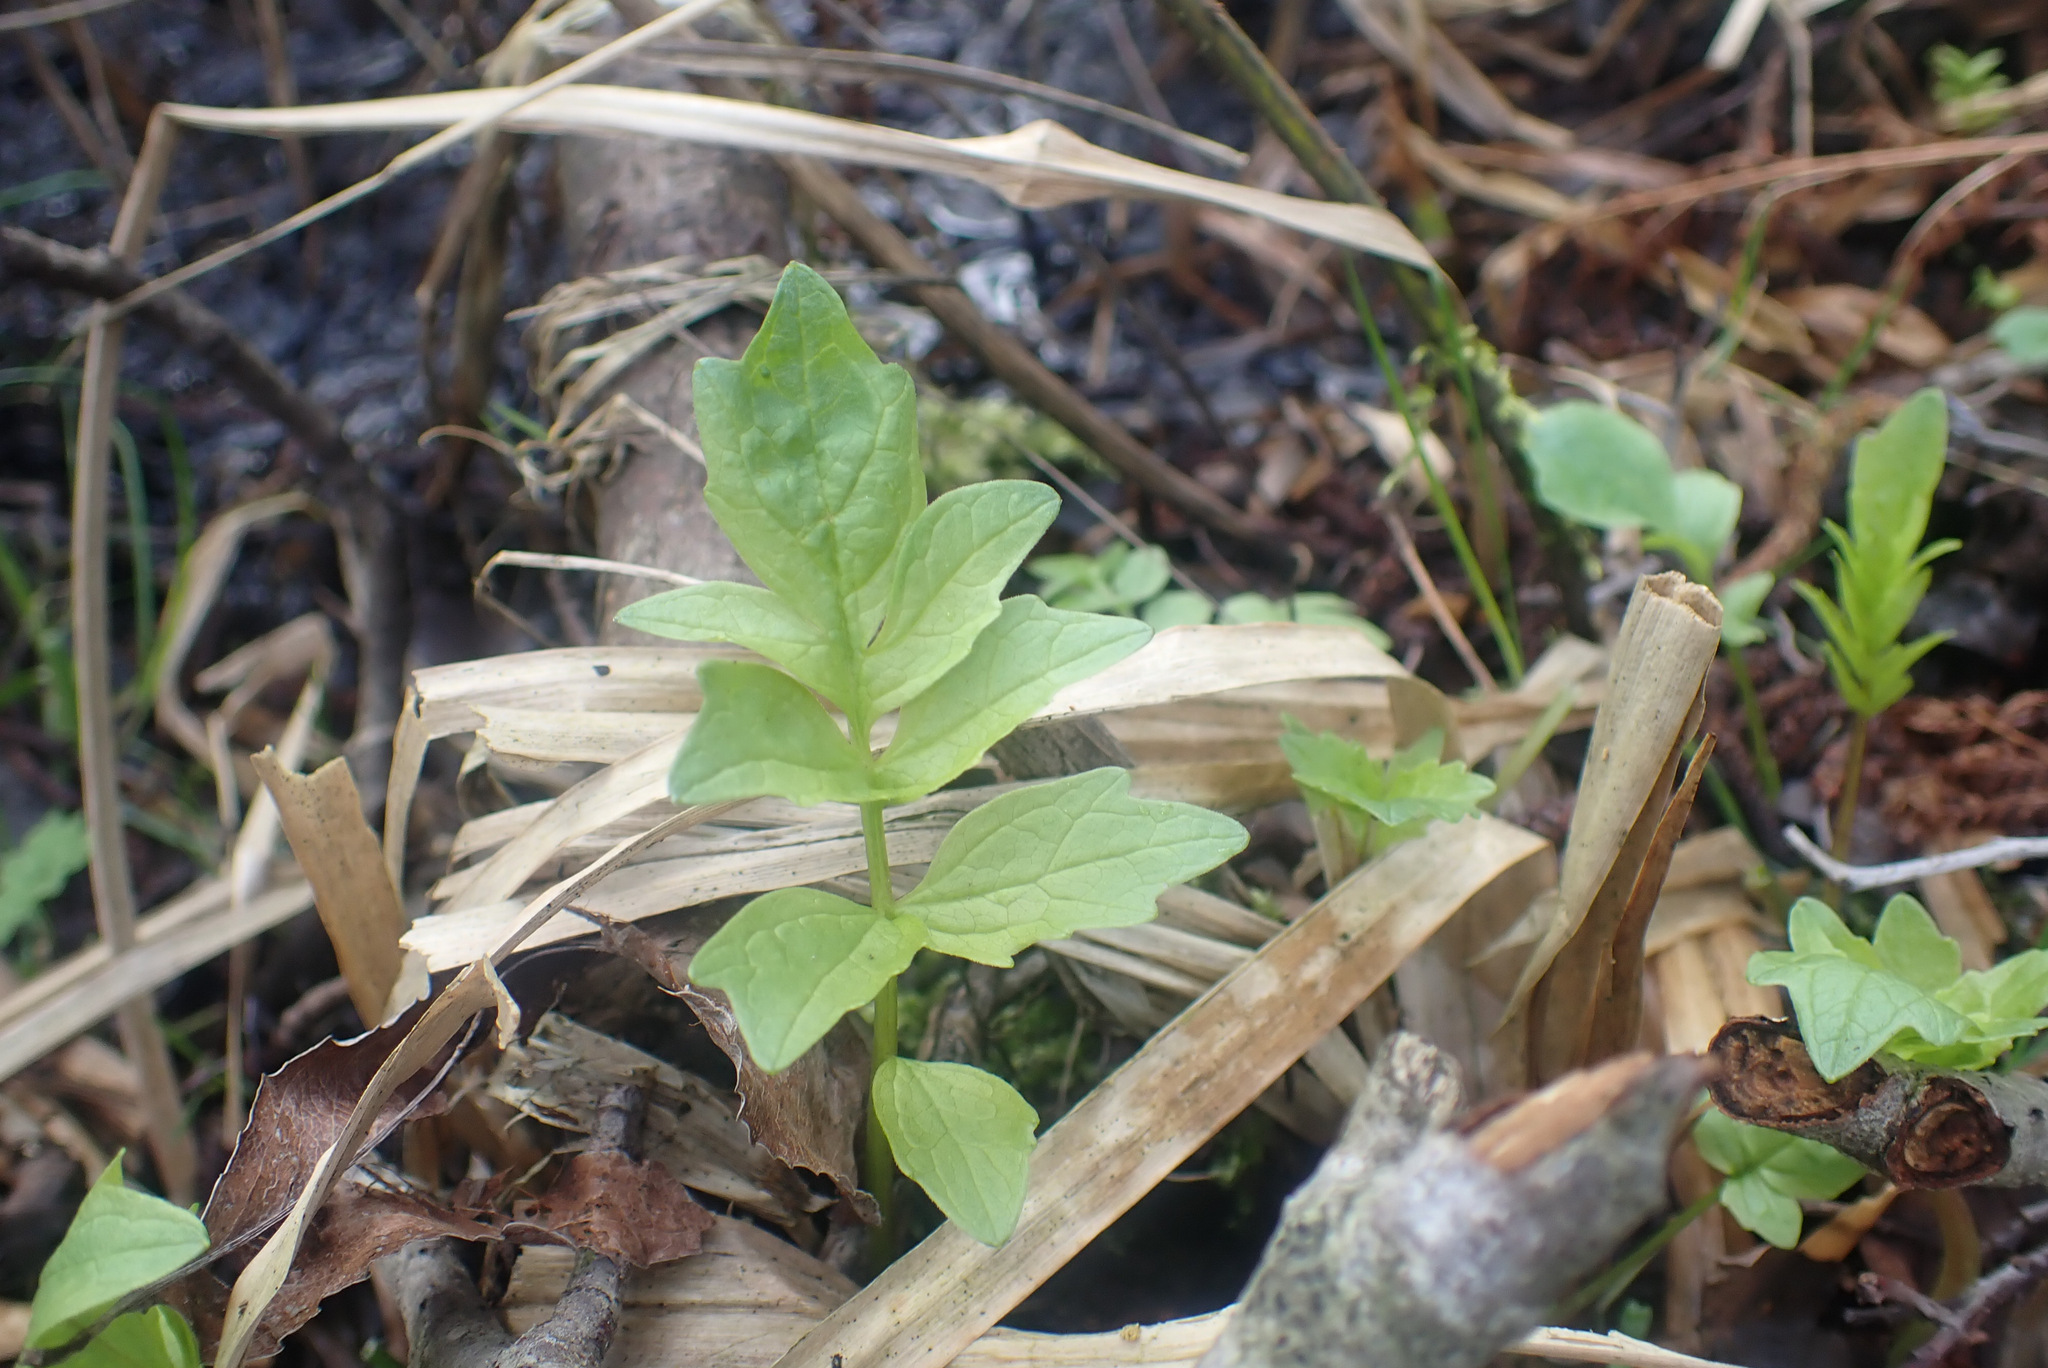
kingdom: Plantae
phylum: Tracheophyta
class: Magnoliopsida
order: Dipsacales
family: Caprifoliaceae
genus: Valeriana
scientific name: Valeriana officinalis
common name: Common valerian
